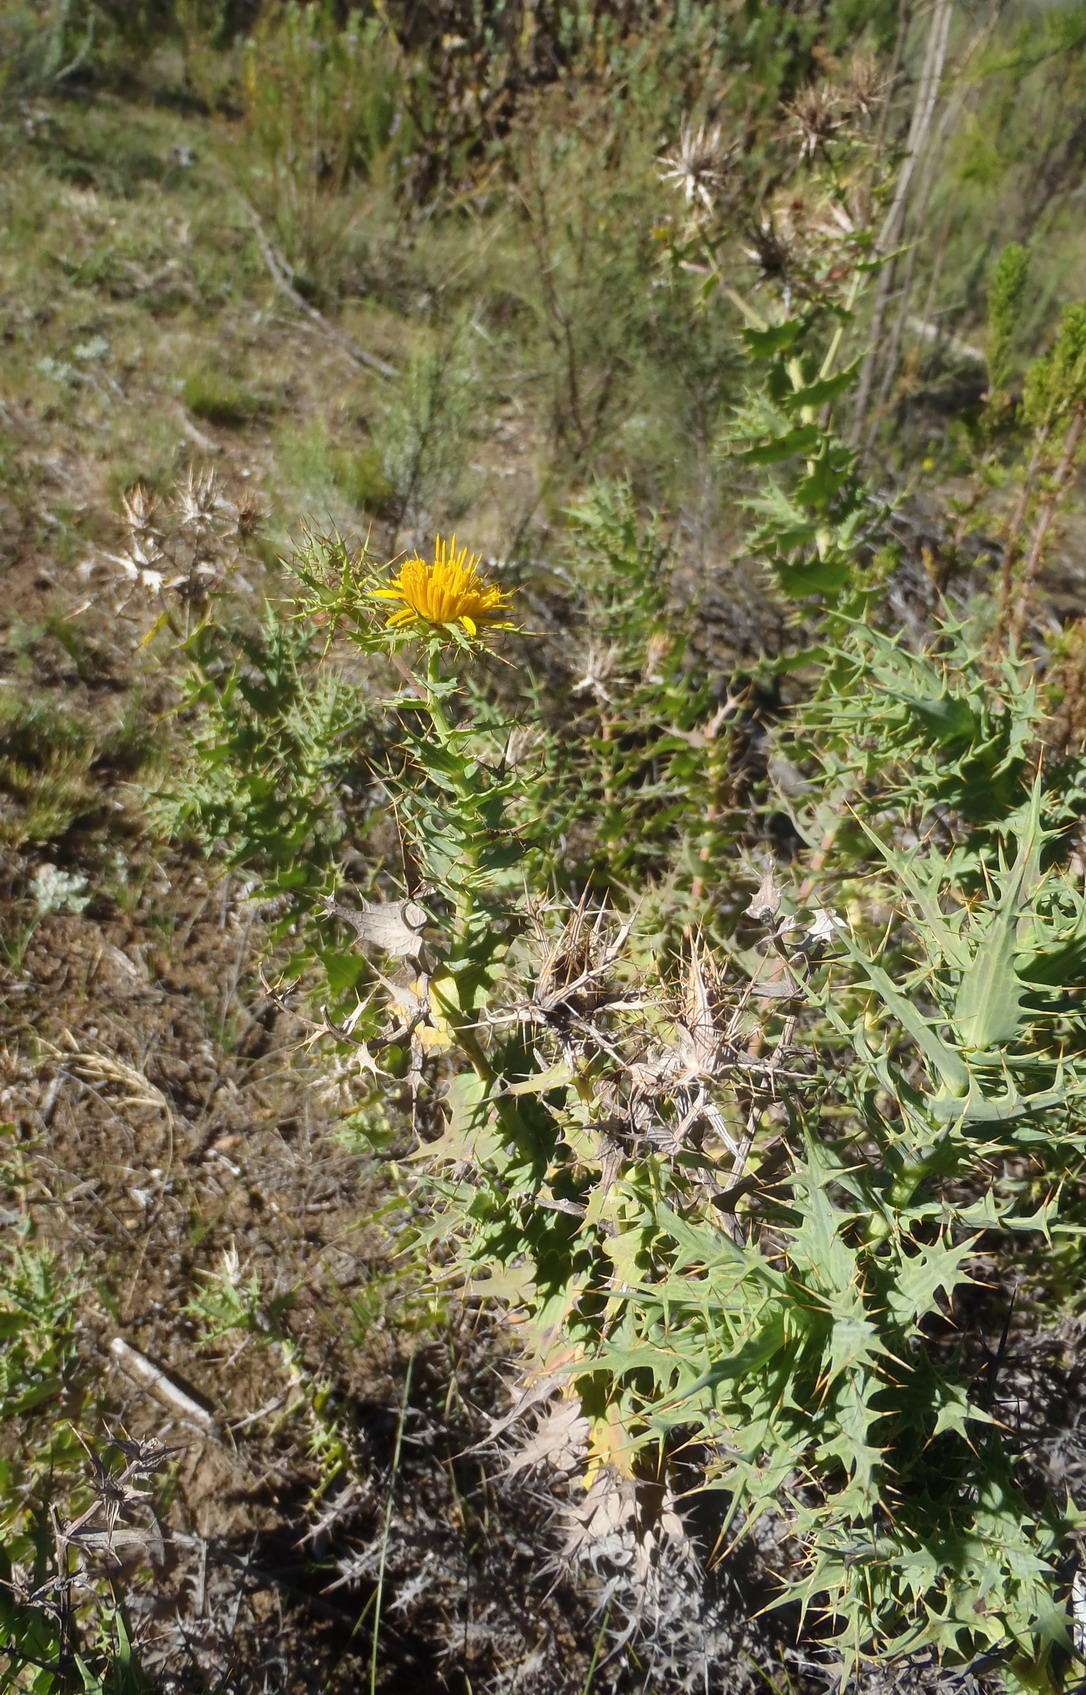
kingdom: Plantae
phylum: Tracheophyta
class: Magnoliopsida
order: Asterales
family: Asteraceae
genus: Berkheya
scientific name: Berkheya cruciata
